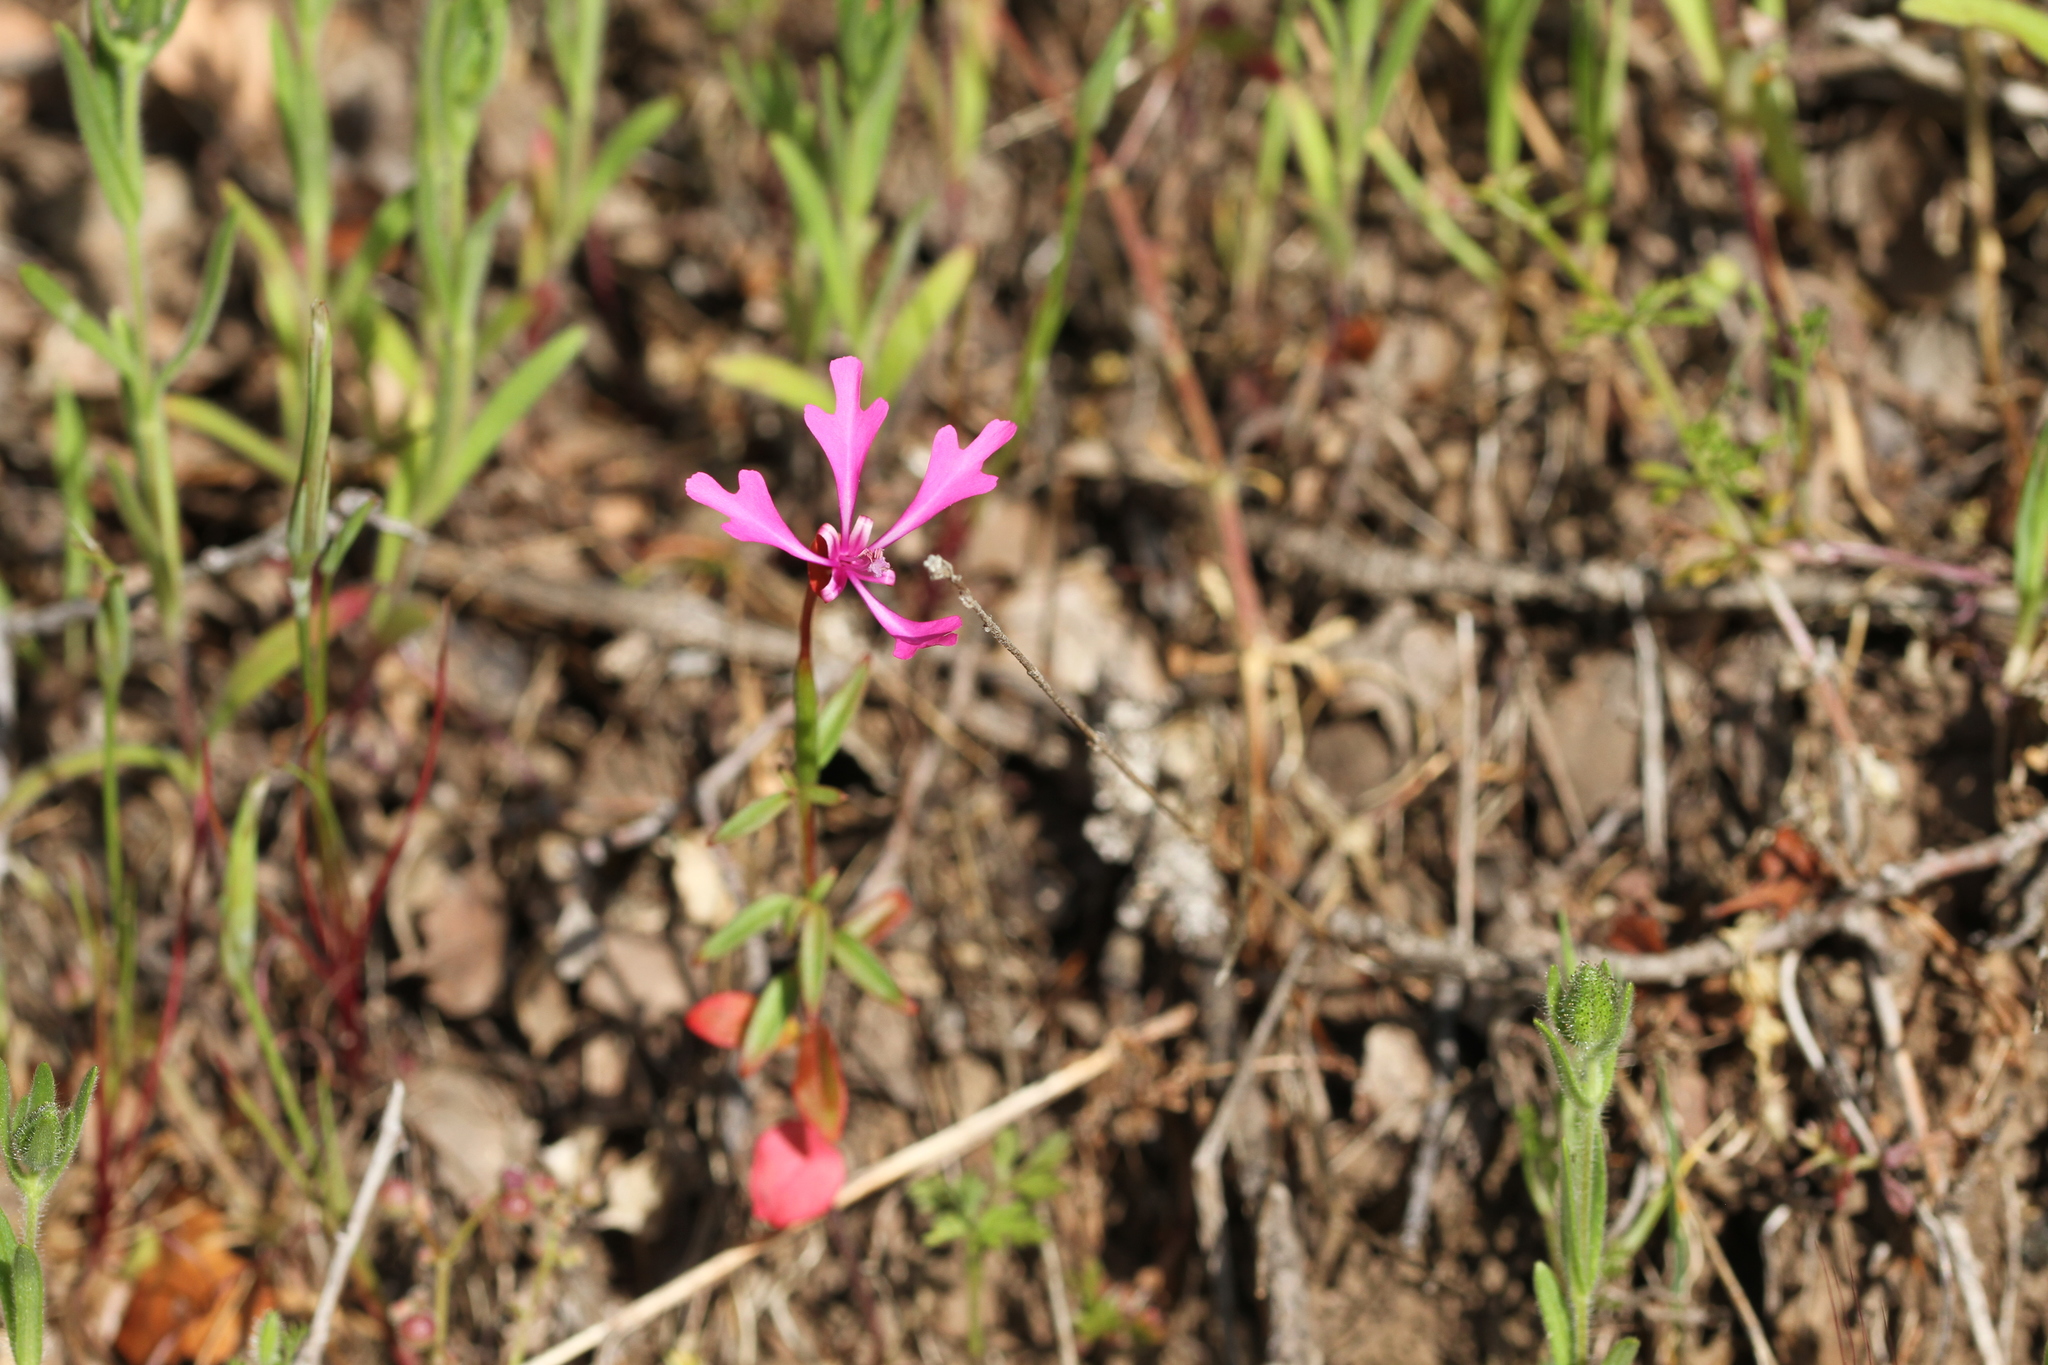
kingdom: Plantae
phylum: Tracheophyta
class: Magnoliopsida
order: Myrtales
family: Onagraceae
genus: Clarkia
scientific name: Clarkia concinna
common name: Red-ribbons
